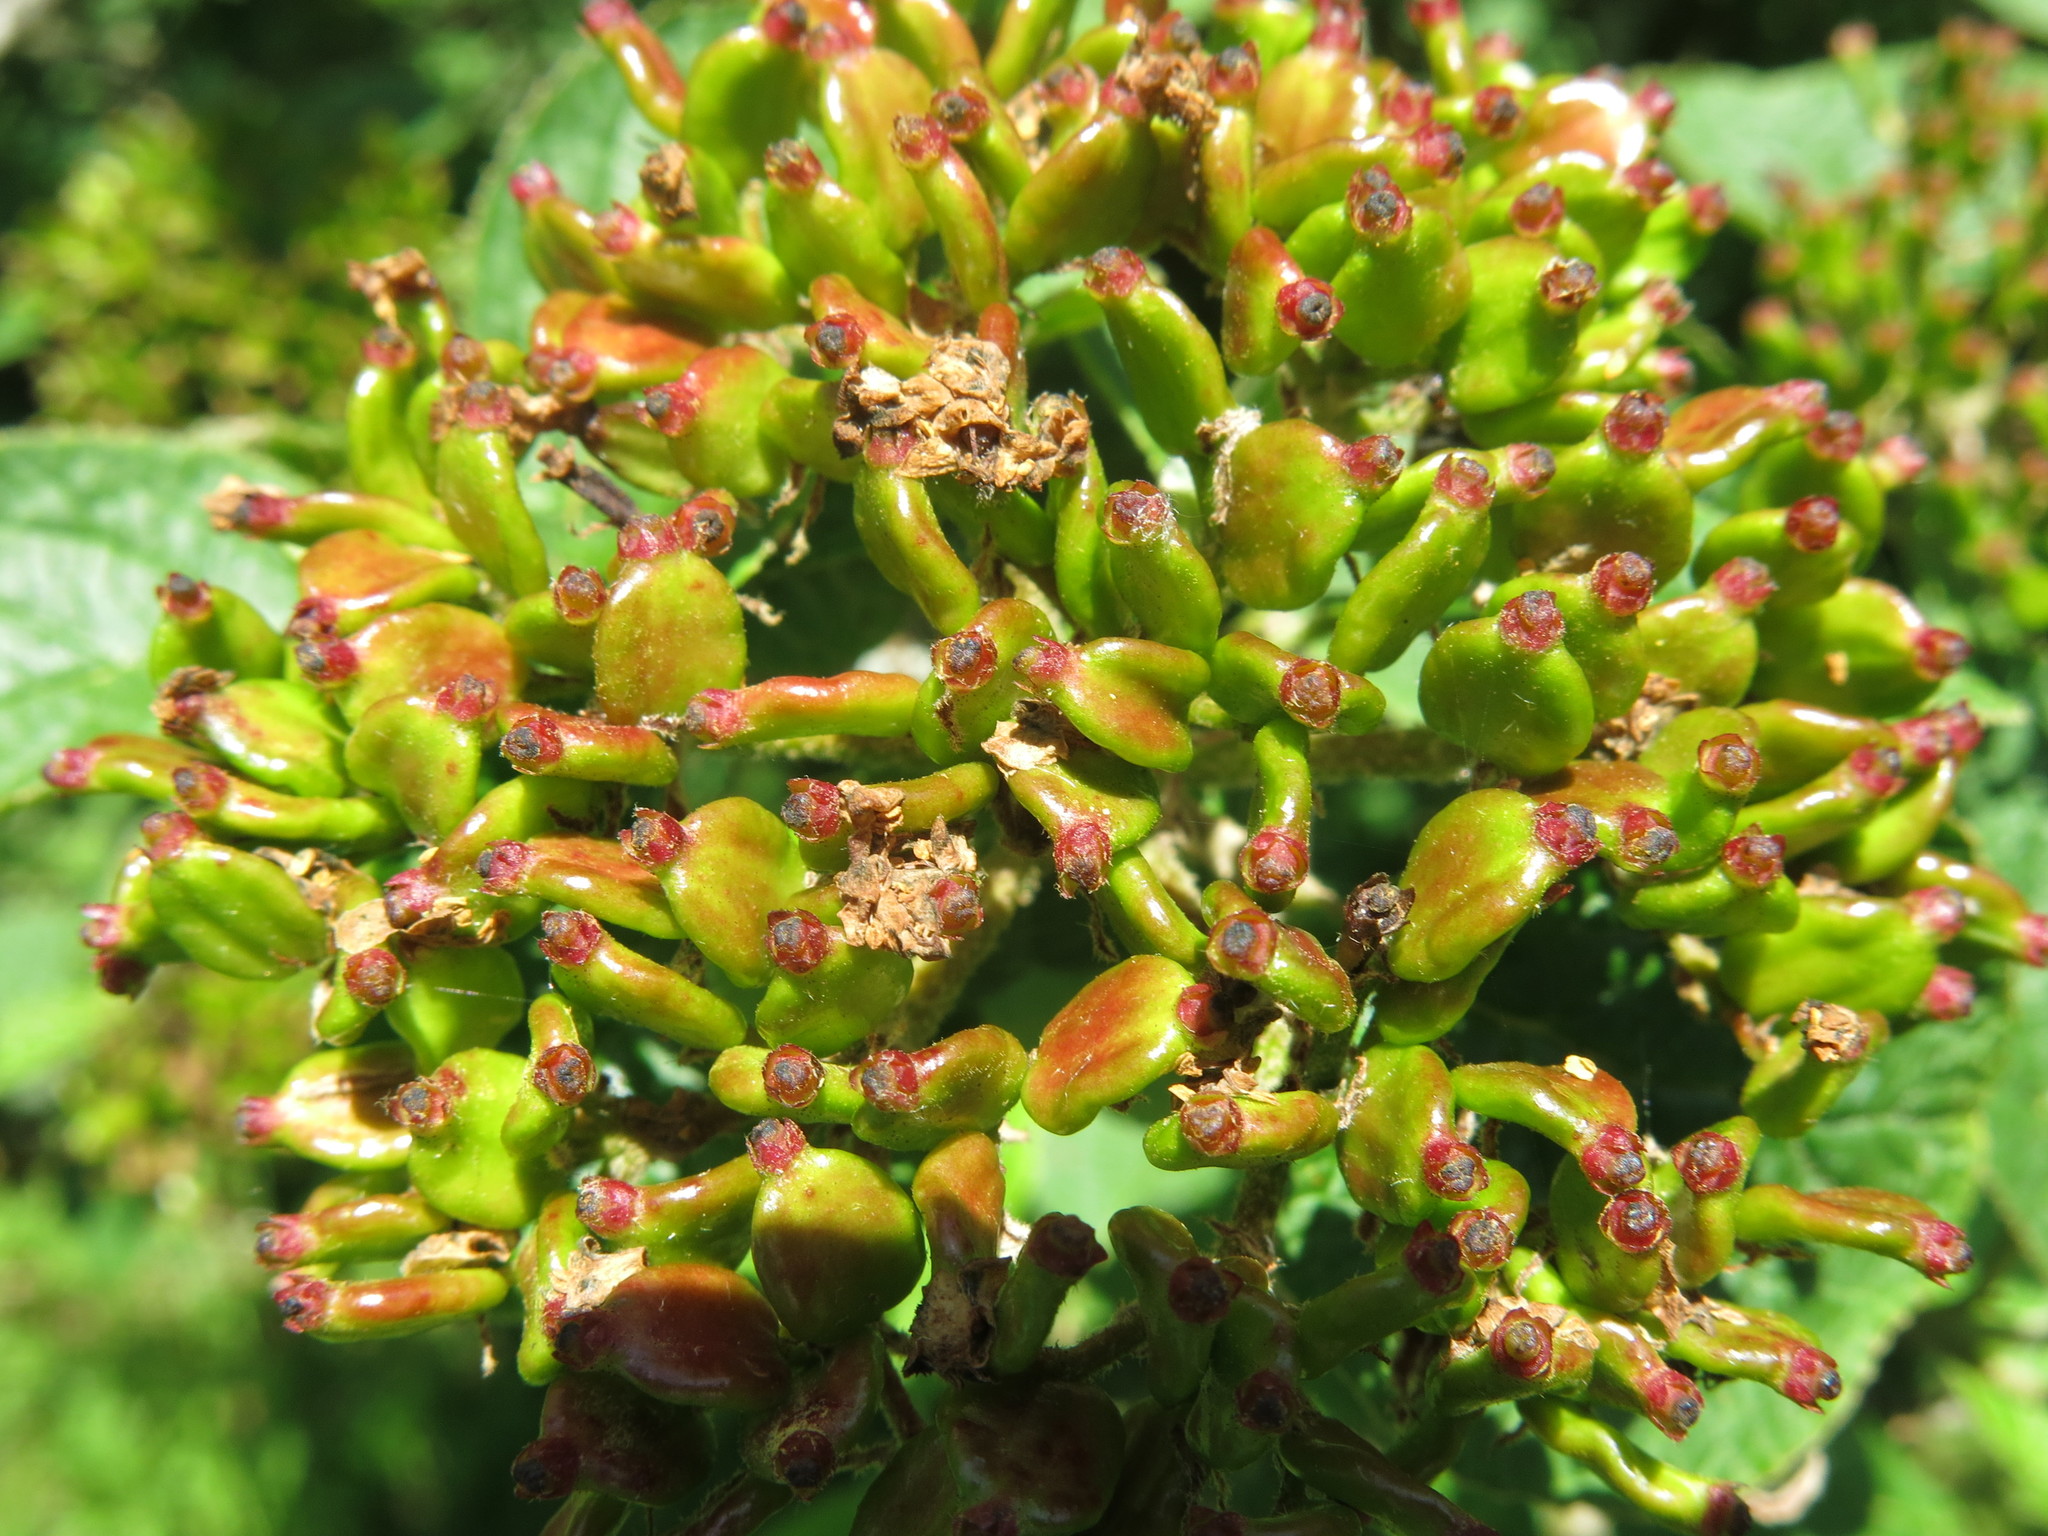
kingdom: Plantae
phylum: Tracheophyta
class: Magnoliopsida
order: Dipsacales
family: Viburnaceae
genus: Viburnum
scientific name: Viburnum lantana
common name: Wayfaring tree
